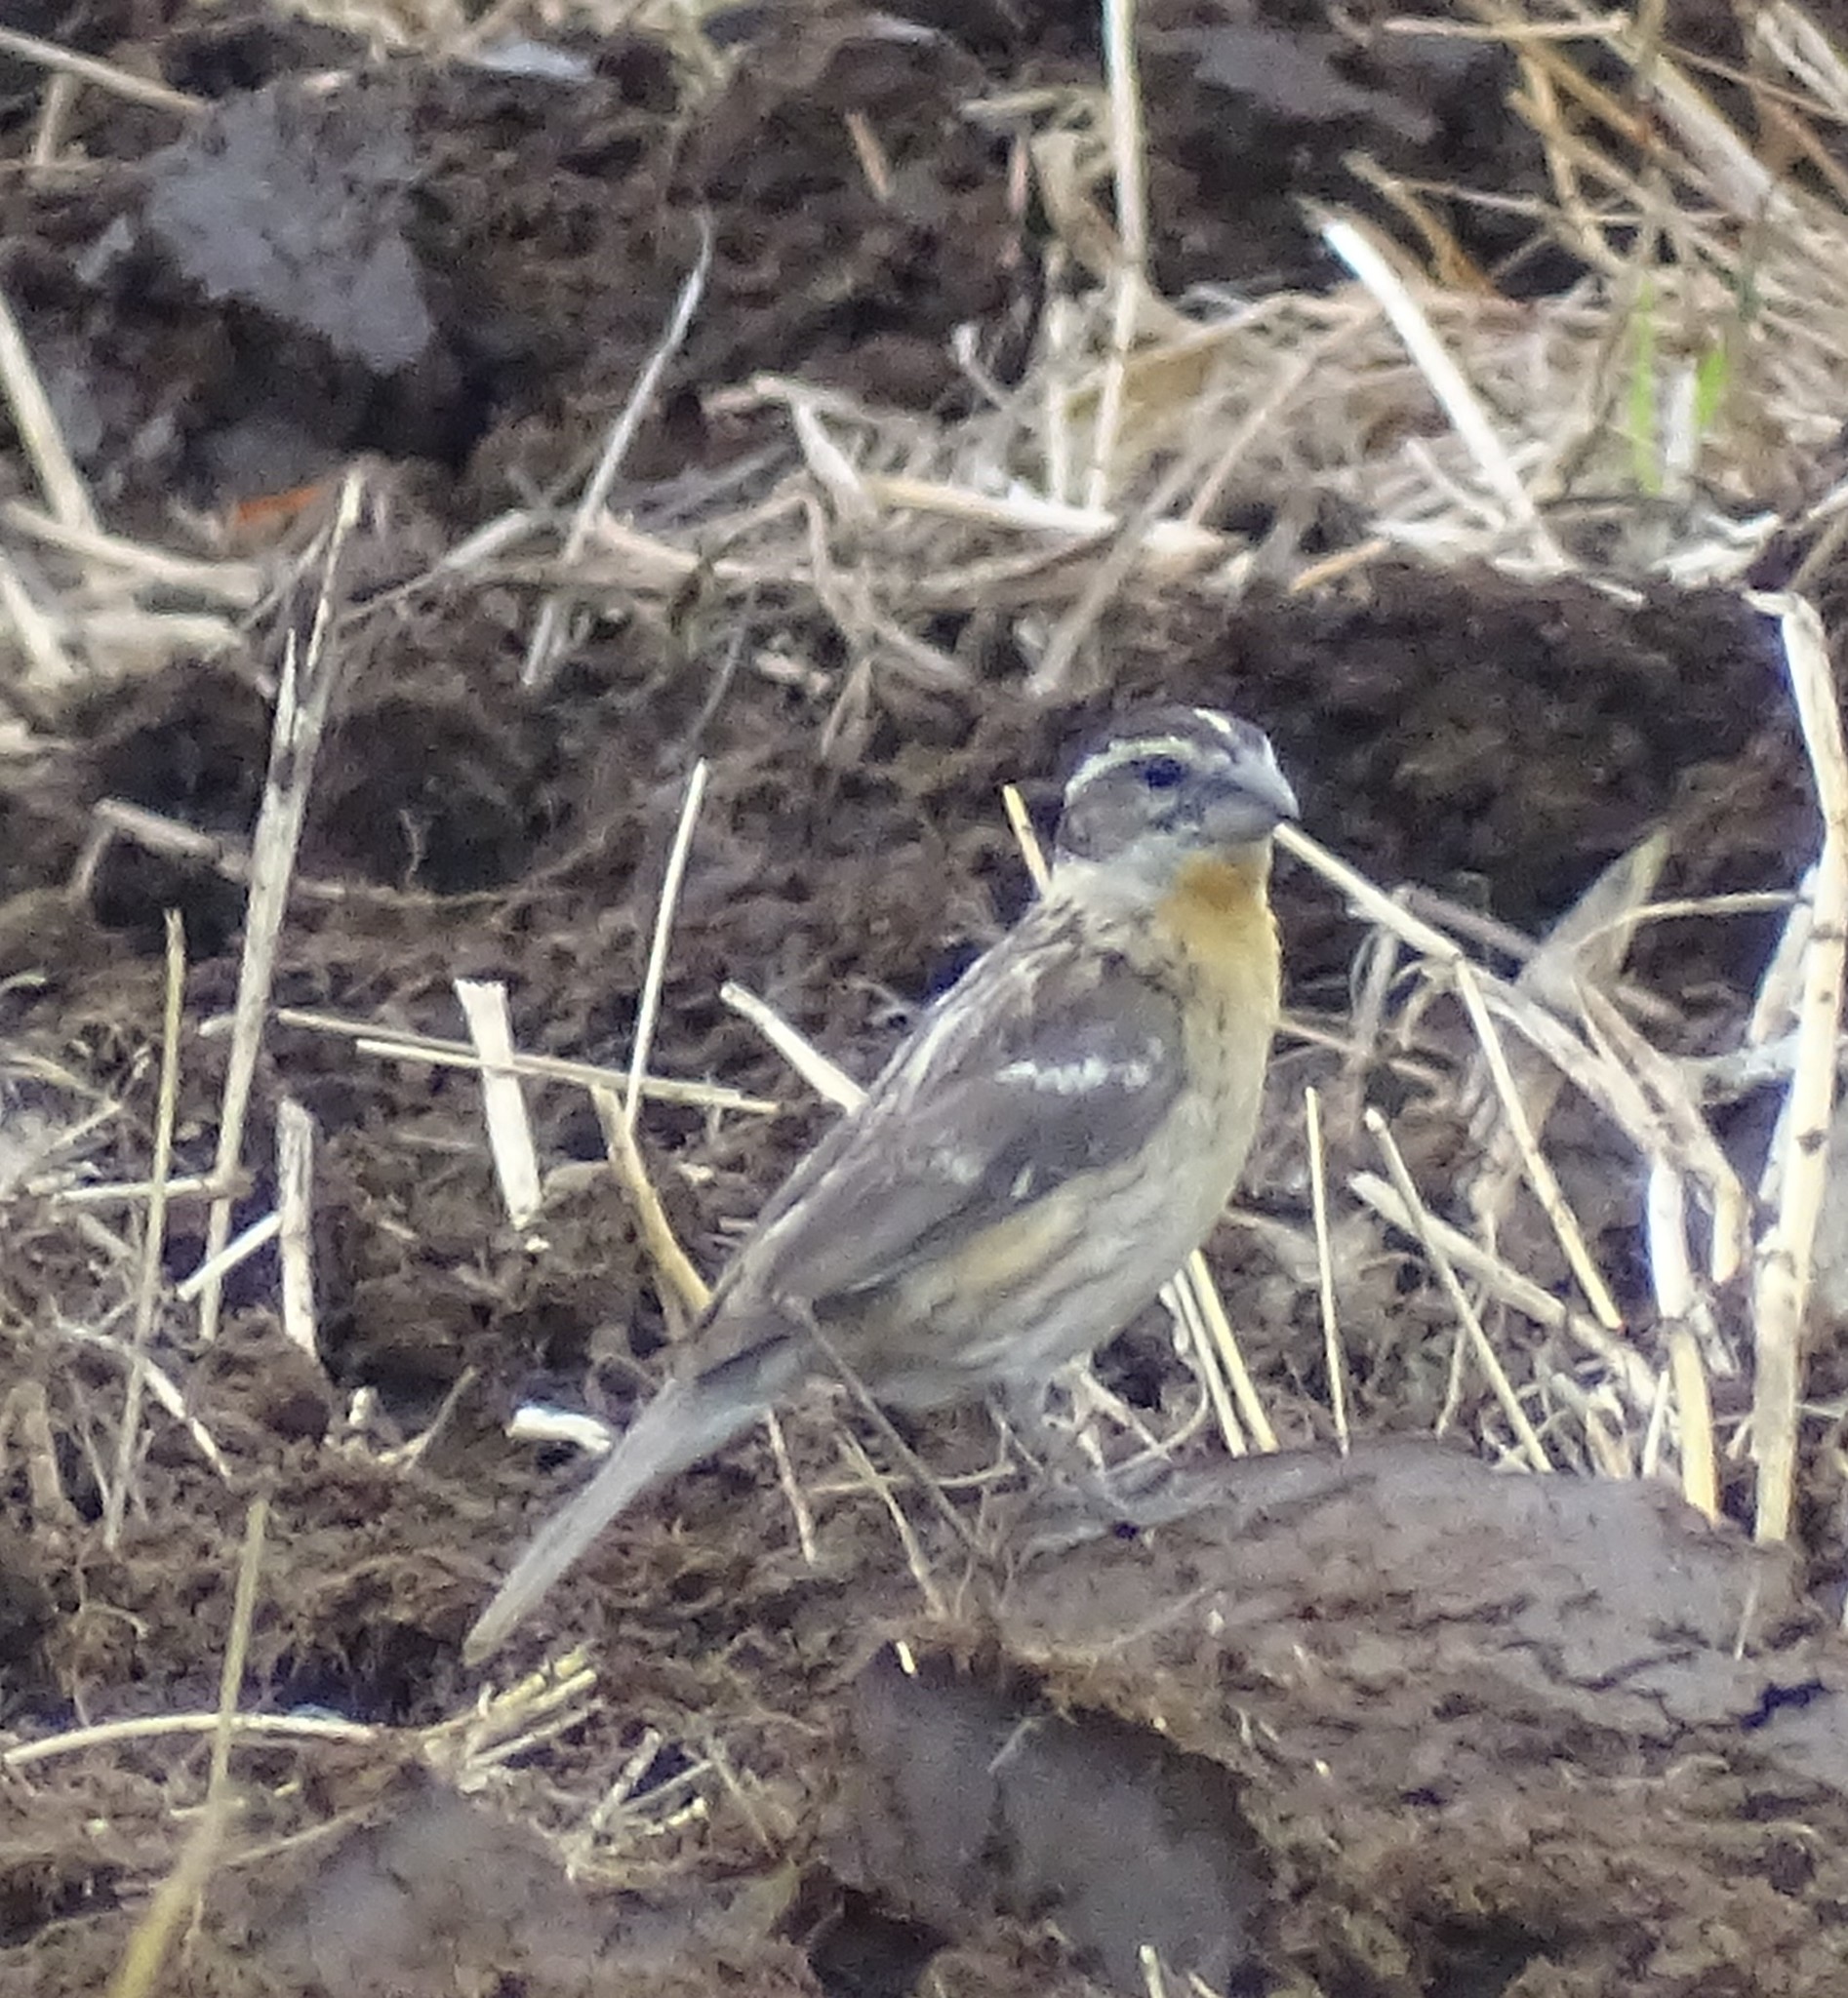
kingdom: Animalia
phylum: Chordata
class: Aves
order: Passeriformes
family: Cardinalidae
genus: Pheucticus
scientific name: Pheucticus melanocephalus
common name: Black-headed grosbeak
